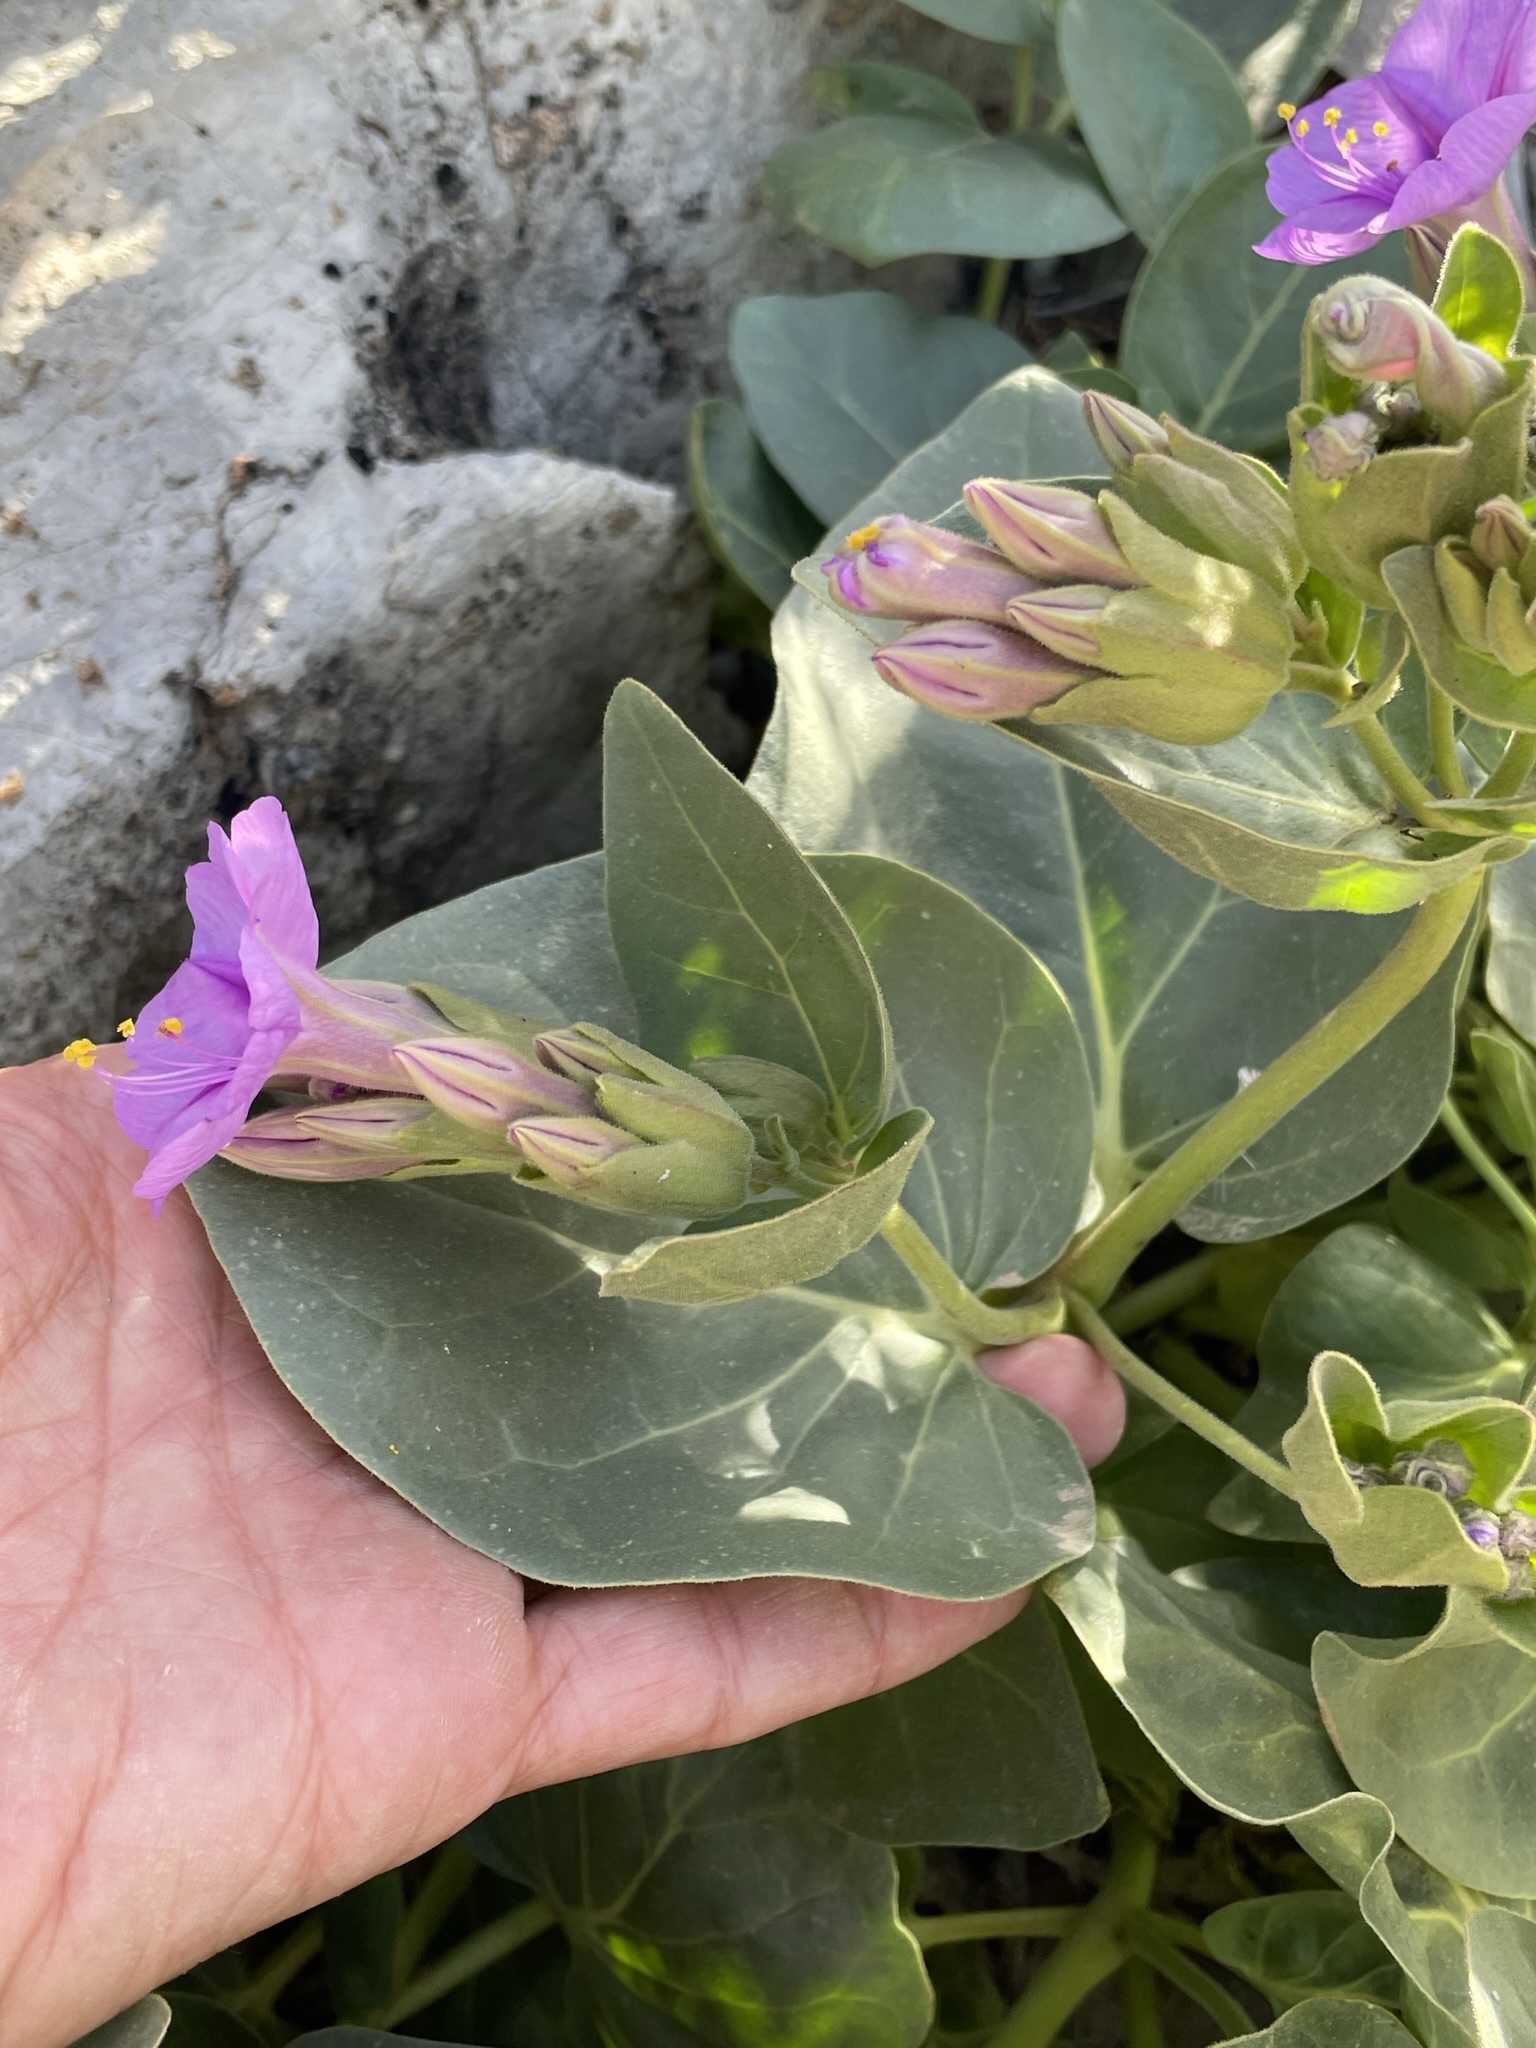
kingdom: Plantae
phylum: Tracheophyta
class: Magnoliopsida
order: Caryophyllales
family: Nyctaginaceae
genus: Mirabilis
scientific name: Mirabilis multiflora
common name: Froebel's four-o'clock
